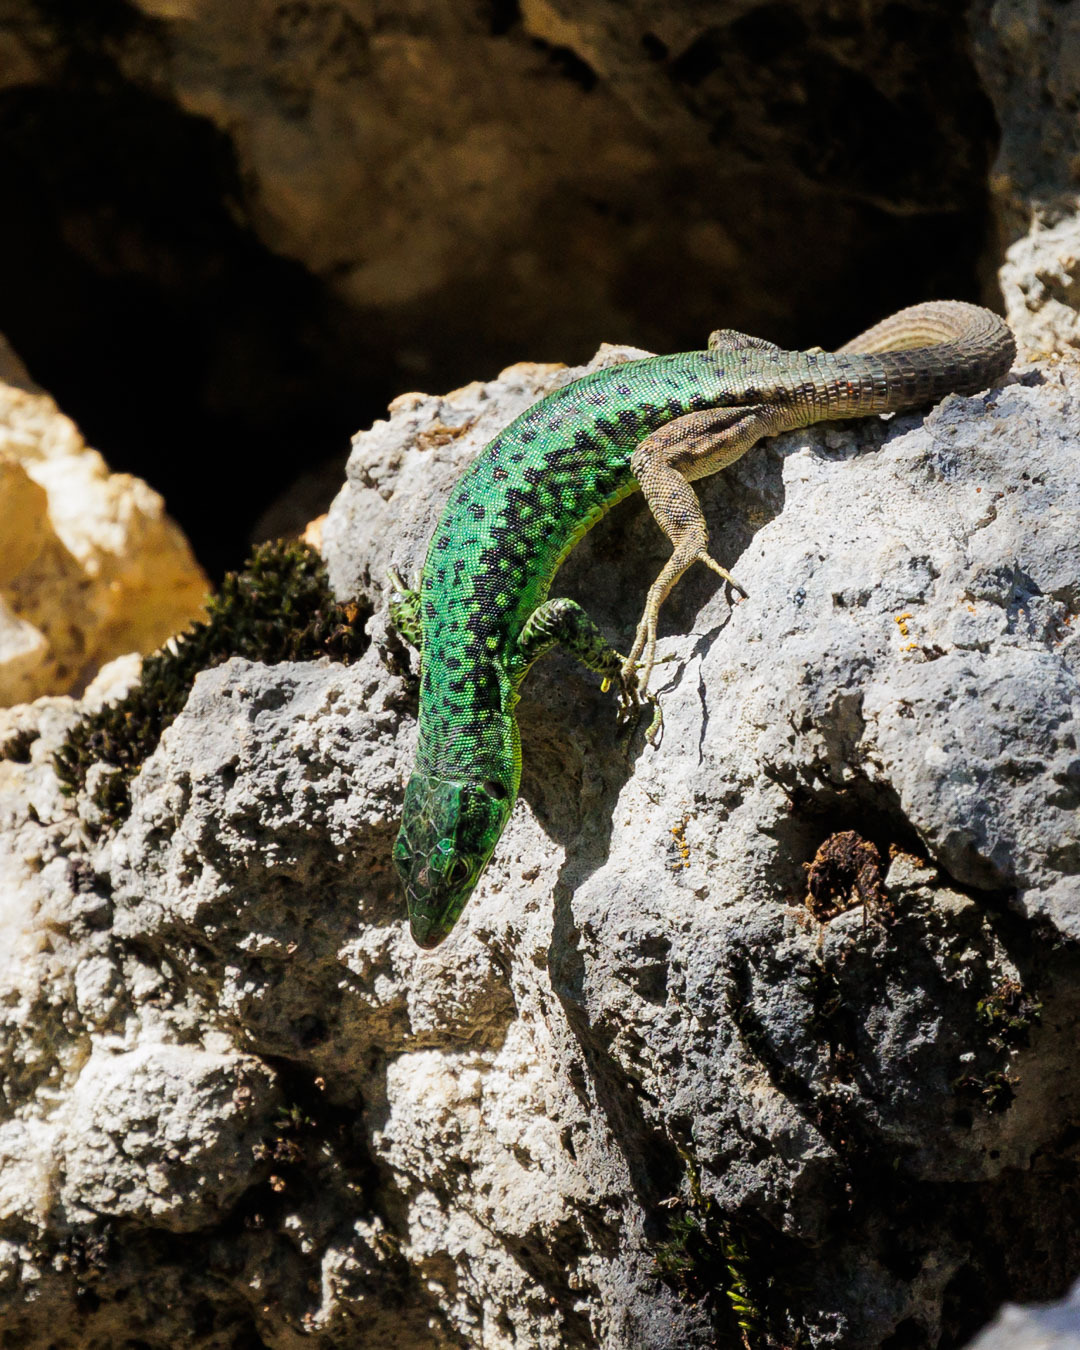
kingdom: Animalia
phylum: Chordata
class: Squamata
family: Lacertidae
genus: Darevskia
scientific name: Darevskia brauneri
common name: Brauner's rock lizard
